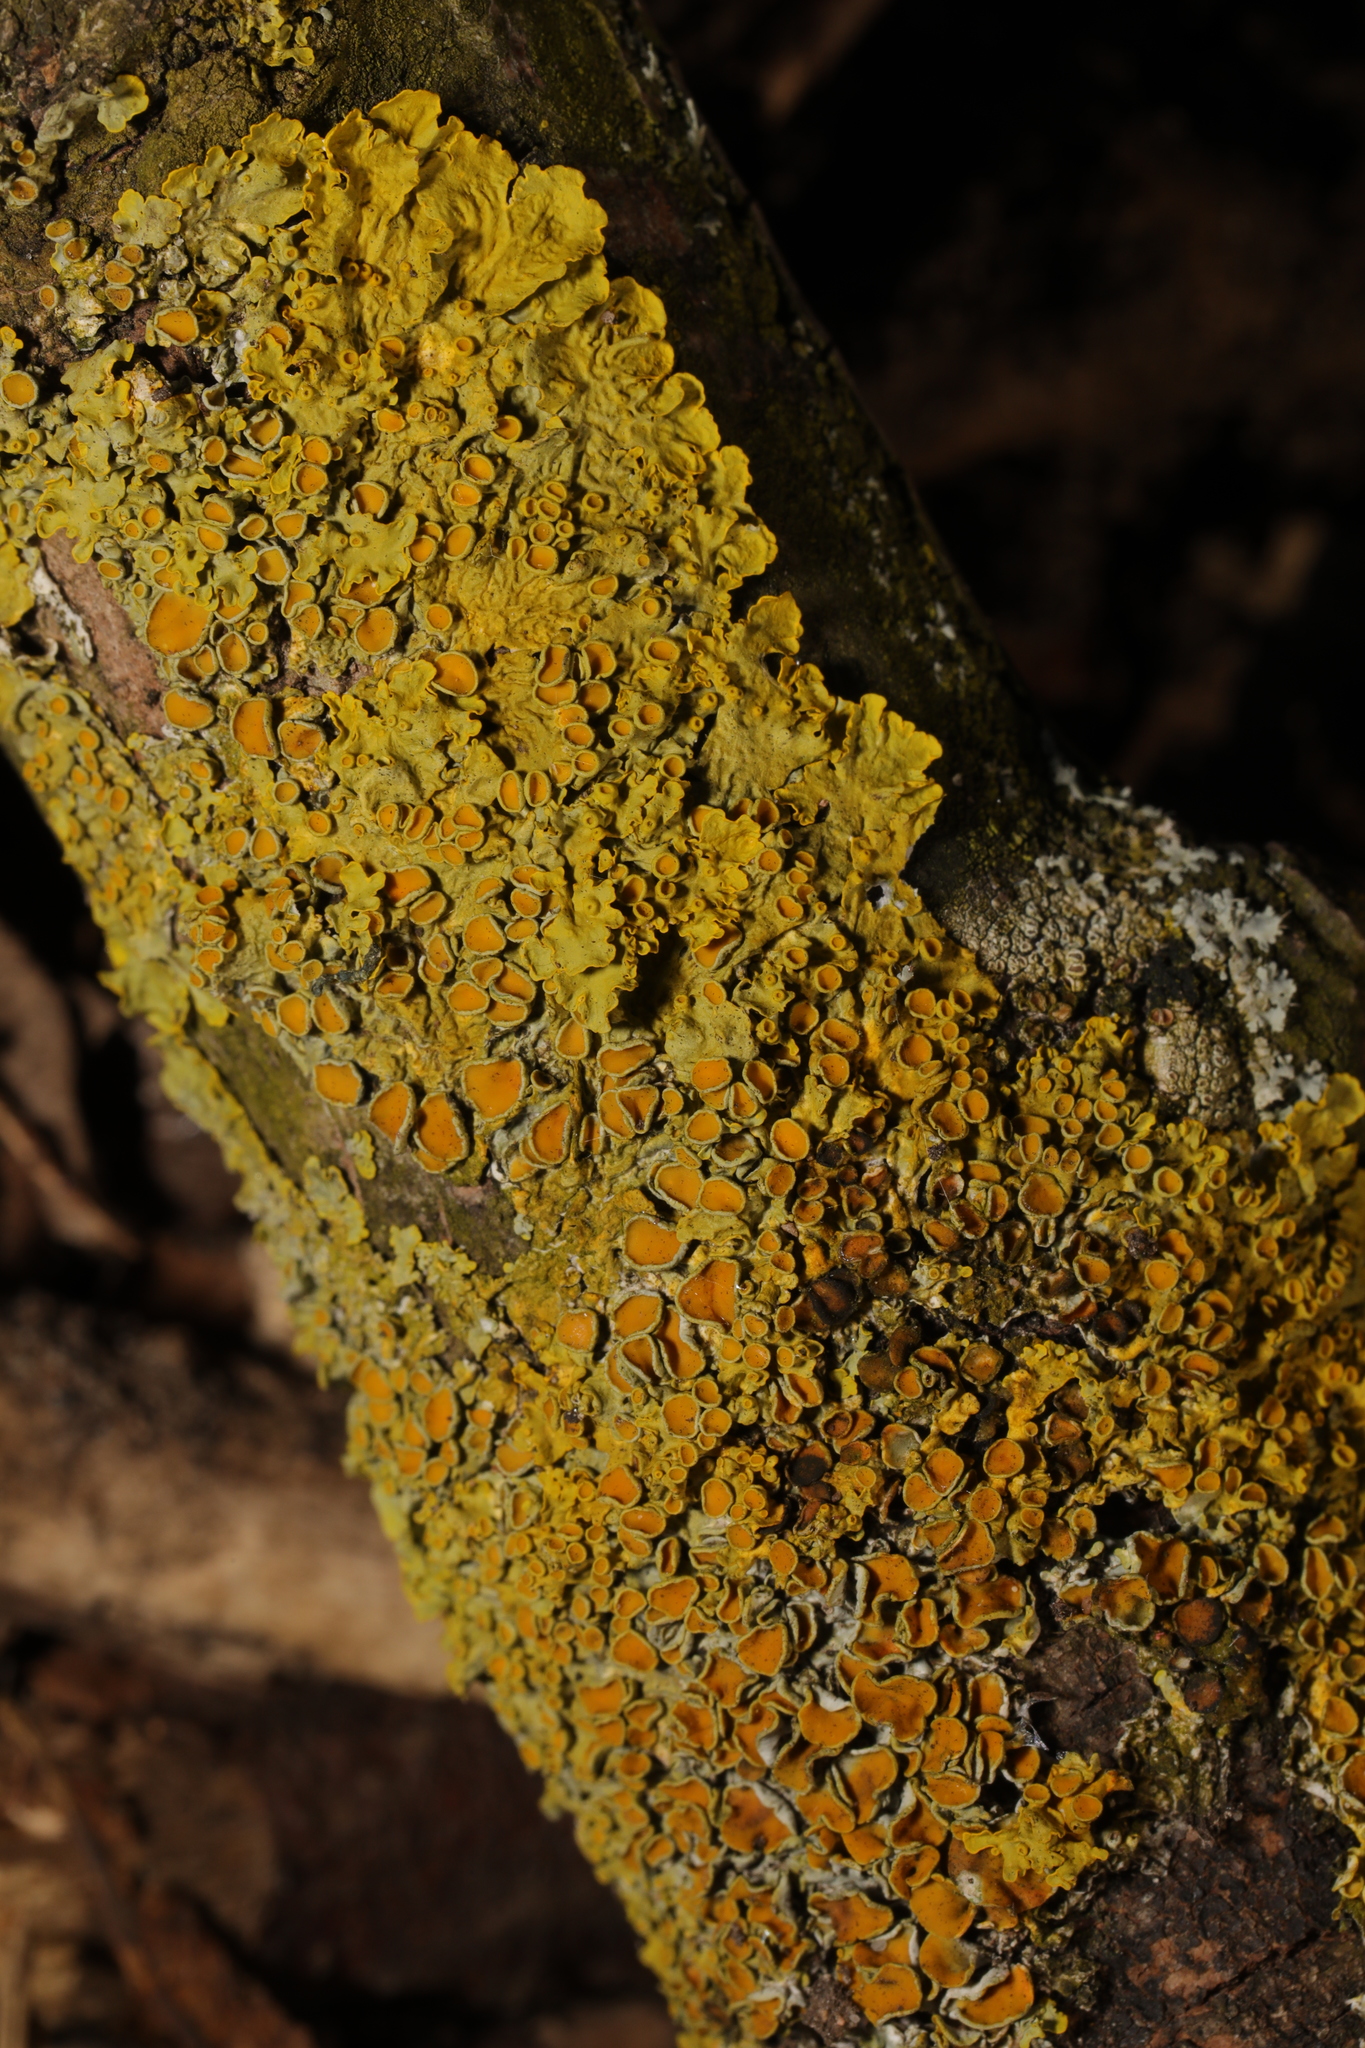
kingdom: Fungi
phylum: Ascomycota
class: Lecanoromycetes
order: Teloschistales
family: Teloschistaceae
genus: Xanthoria
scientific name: Xanthoria parietina
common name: Common orange lichen
